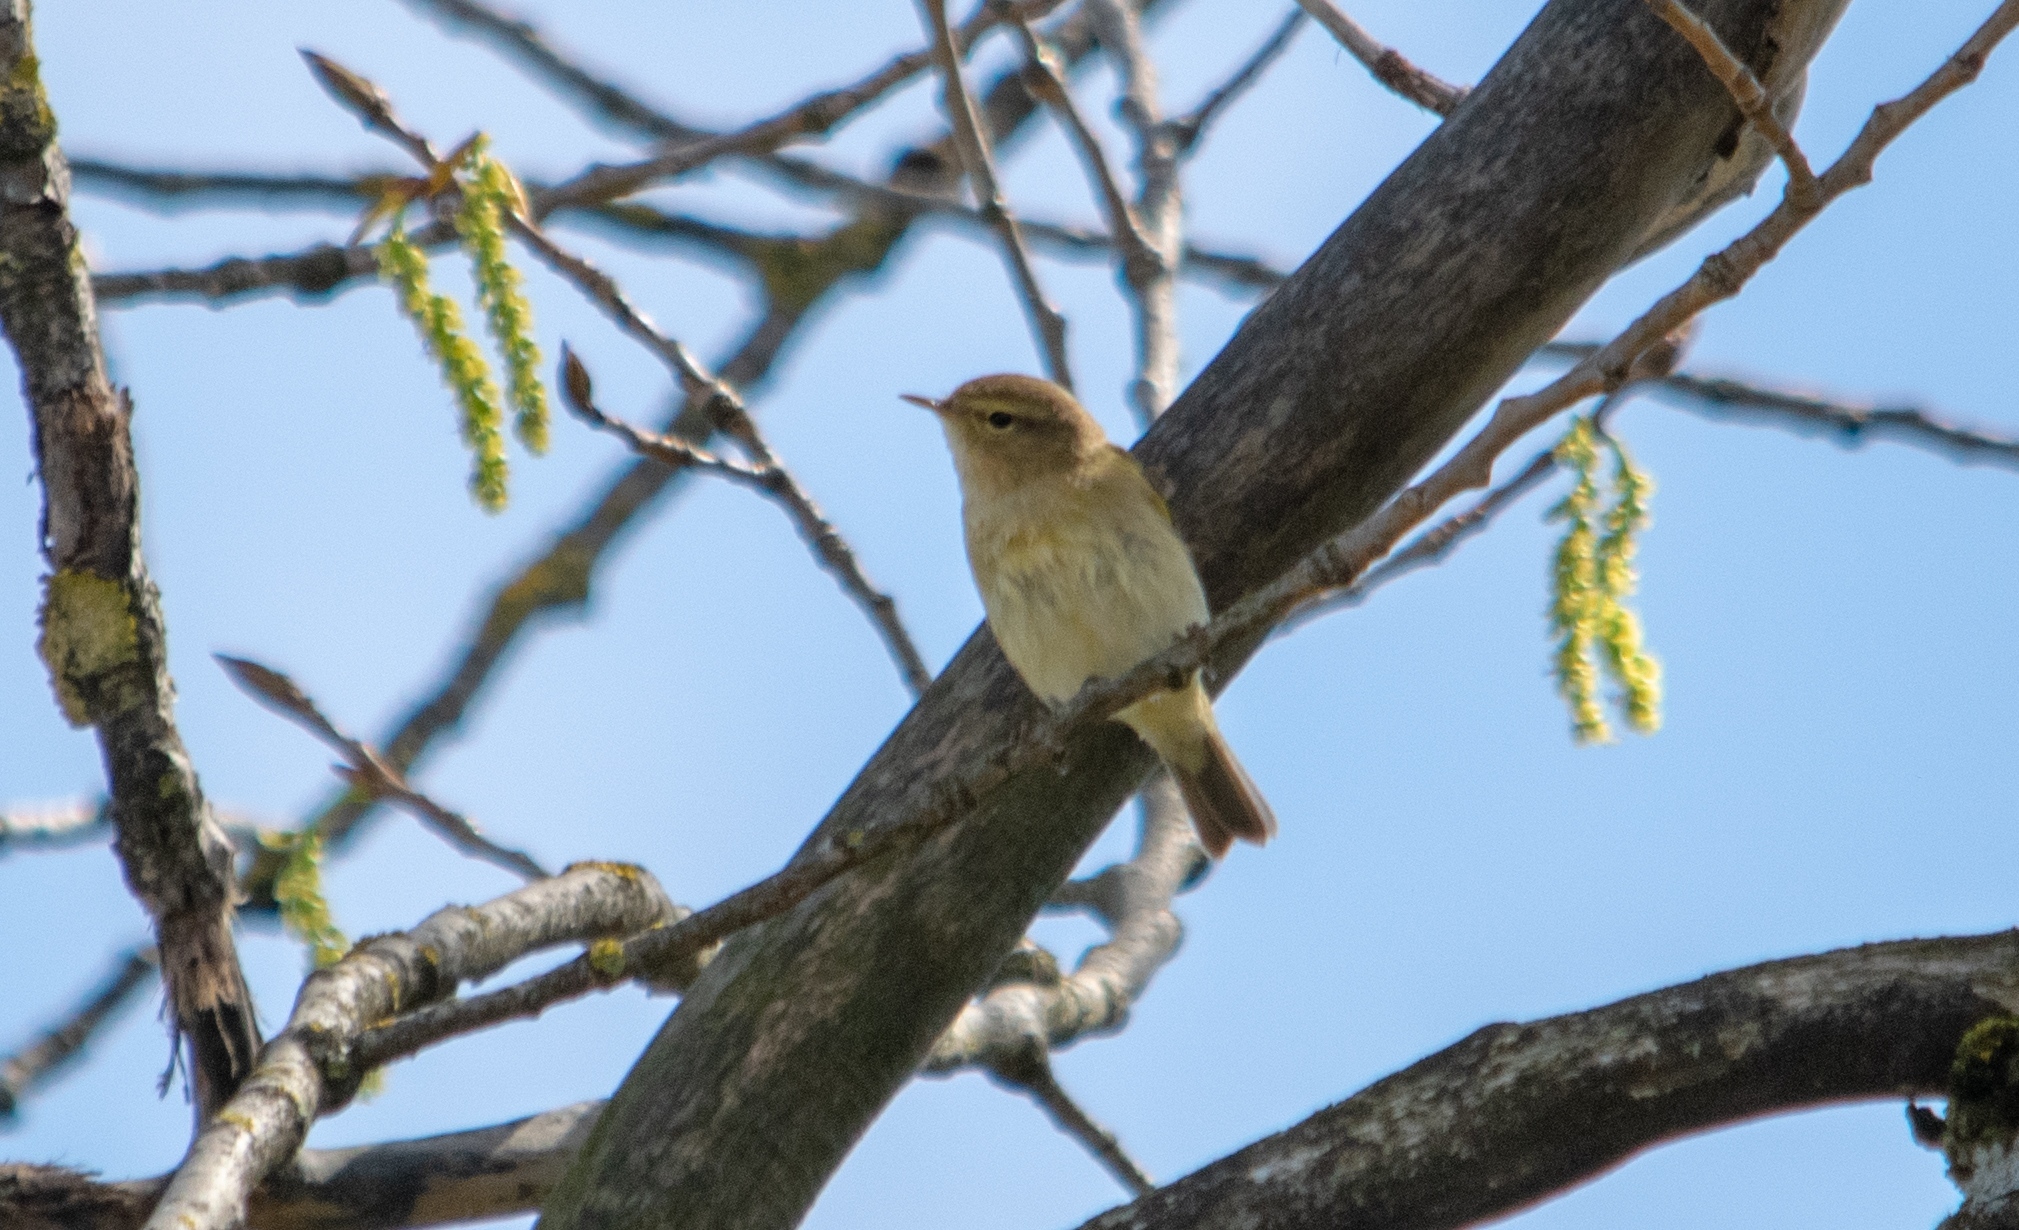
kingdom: Animalia
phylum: Chordata
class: Aves
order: Passeriformes
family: Phylloscopidae
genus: Phylloscopus
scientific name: Phylloscopus collybita
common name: Common chiffchaff
